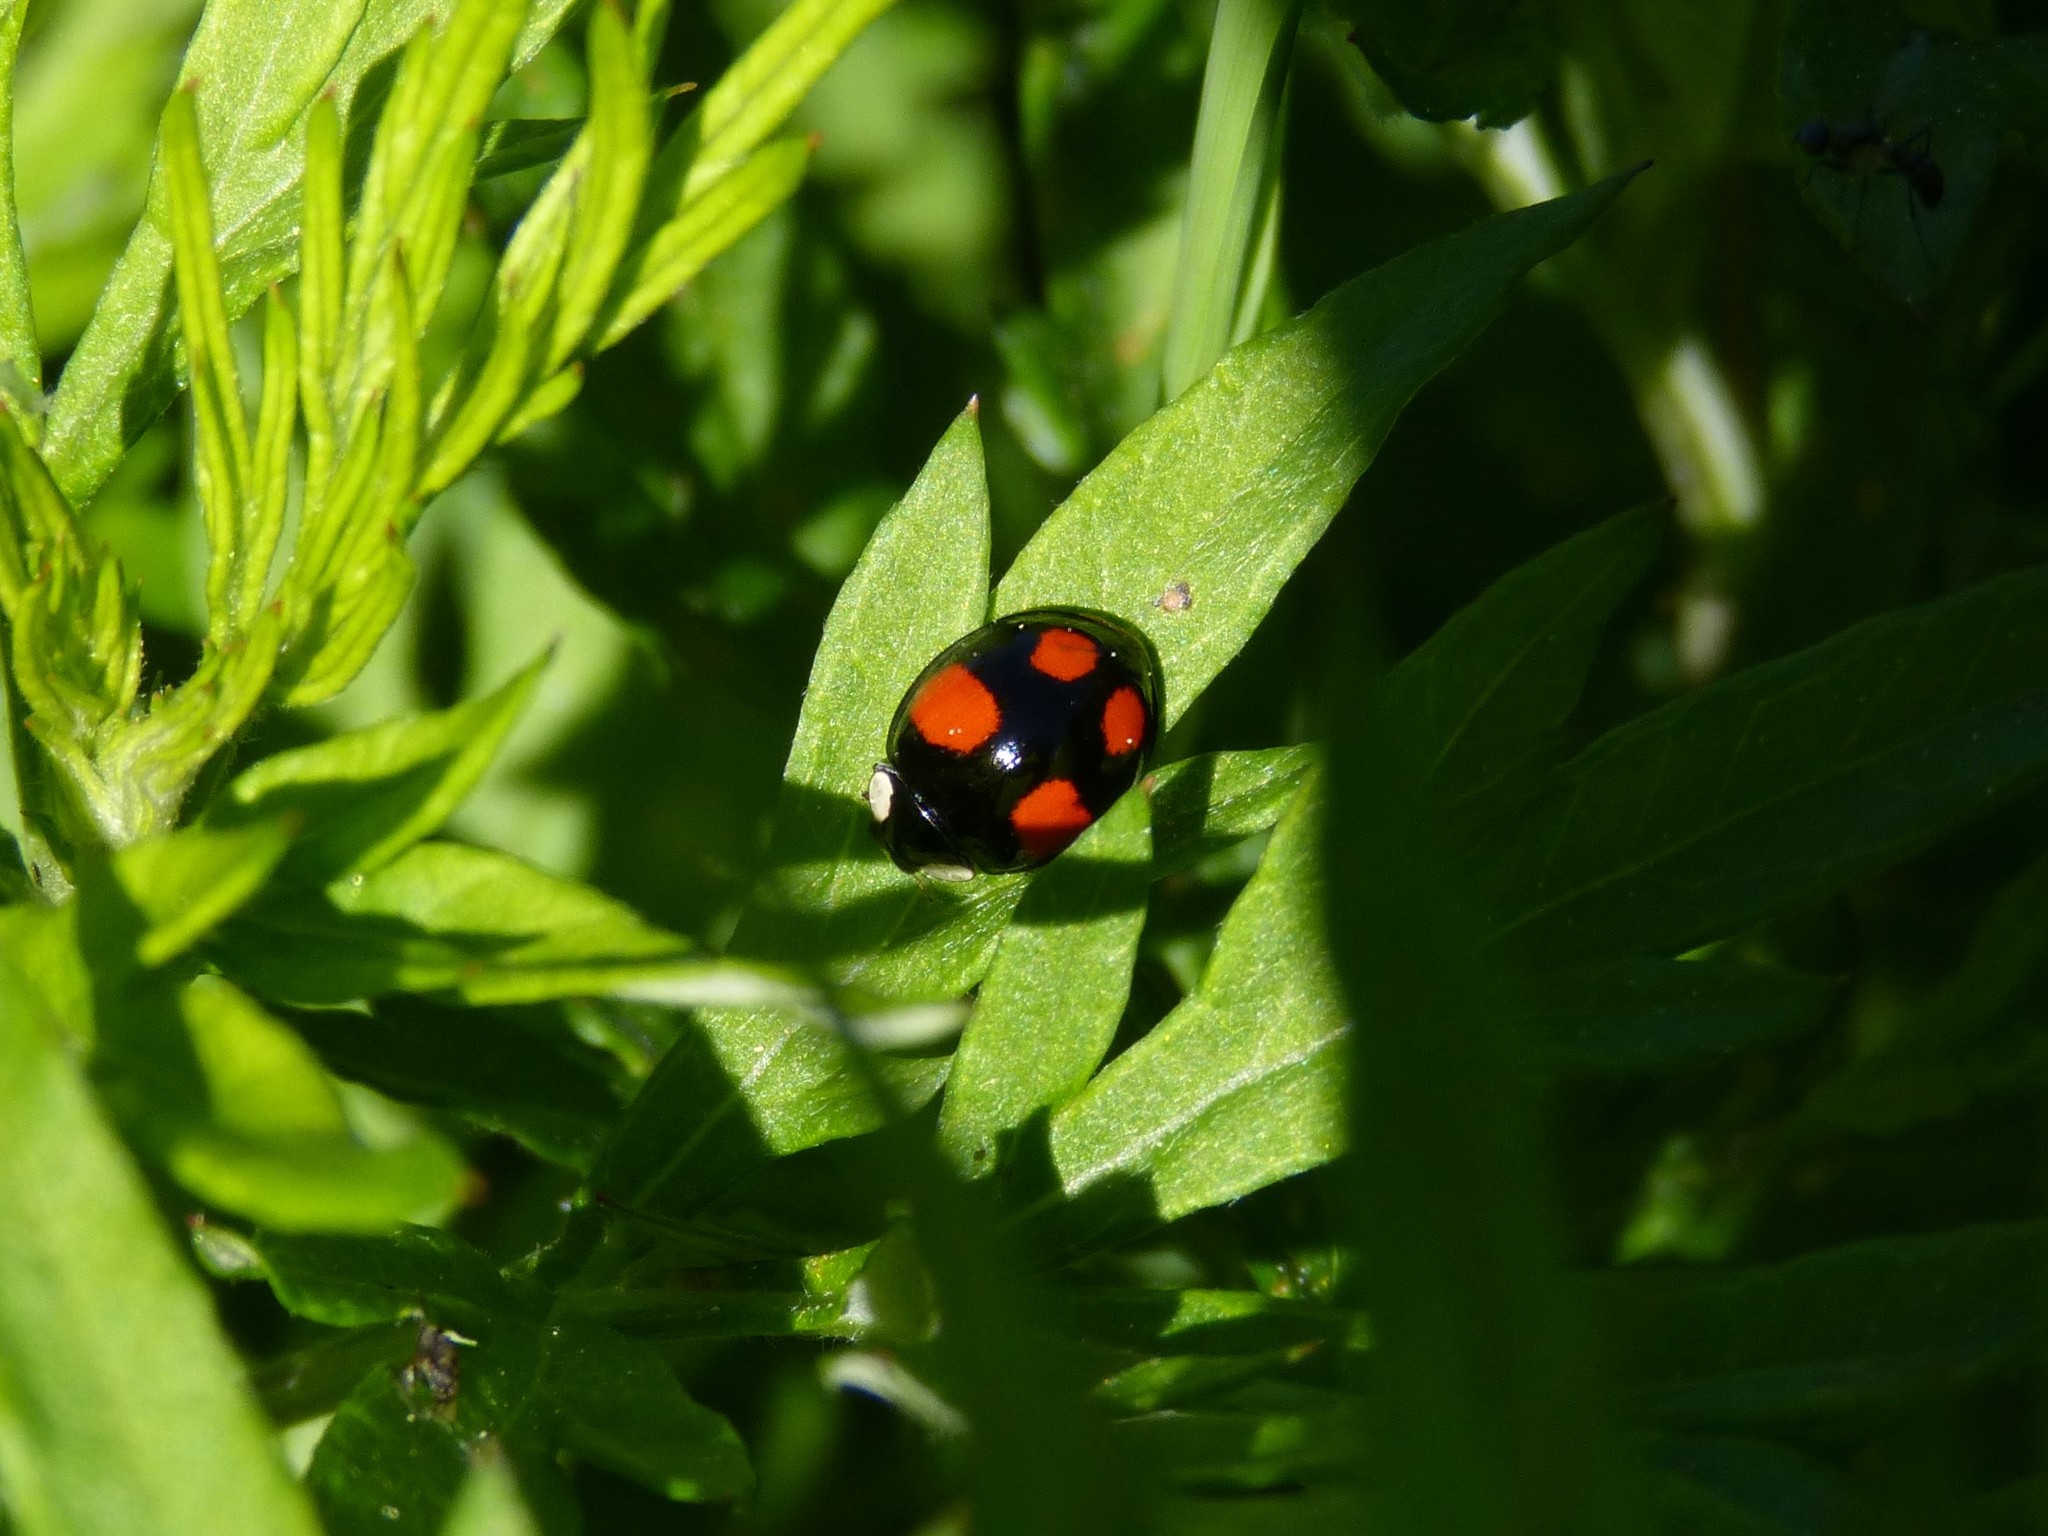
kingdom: Animalia
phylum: Arthropoda
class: Insecta
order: Coleoptera
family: Coccinellidae
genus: Harmonia
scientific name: Harmonia axyridis
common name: Harlequin ladybird
